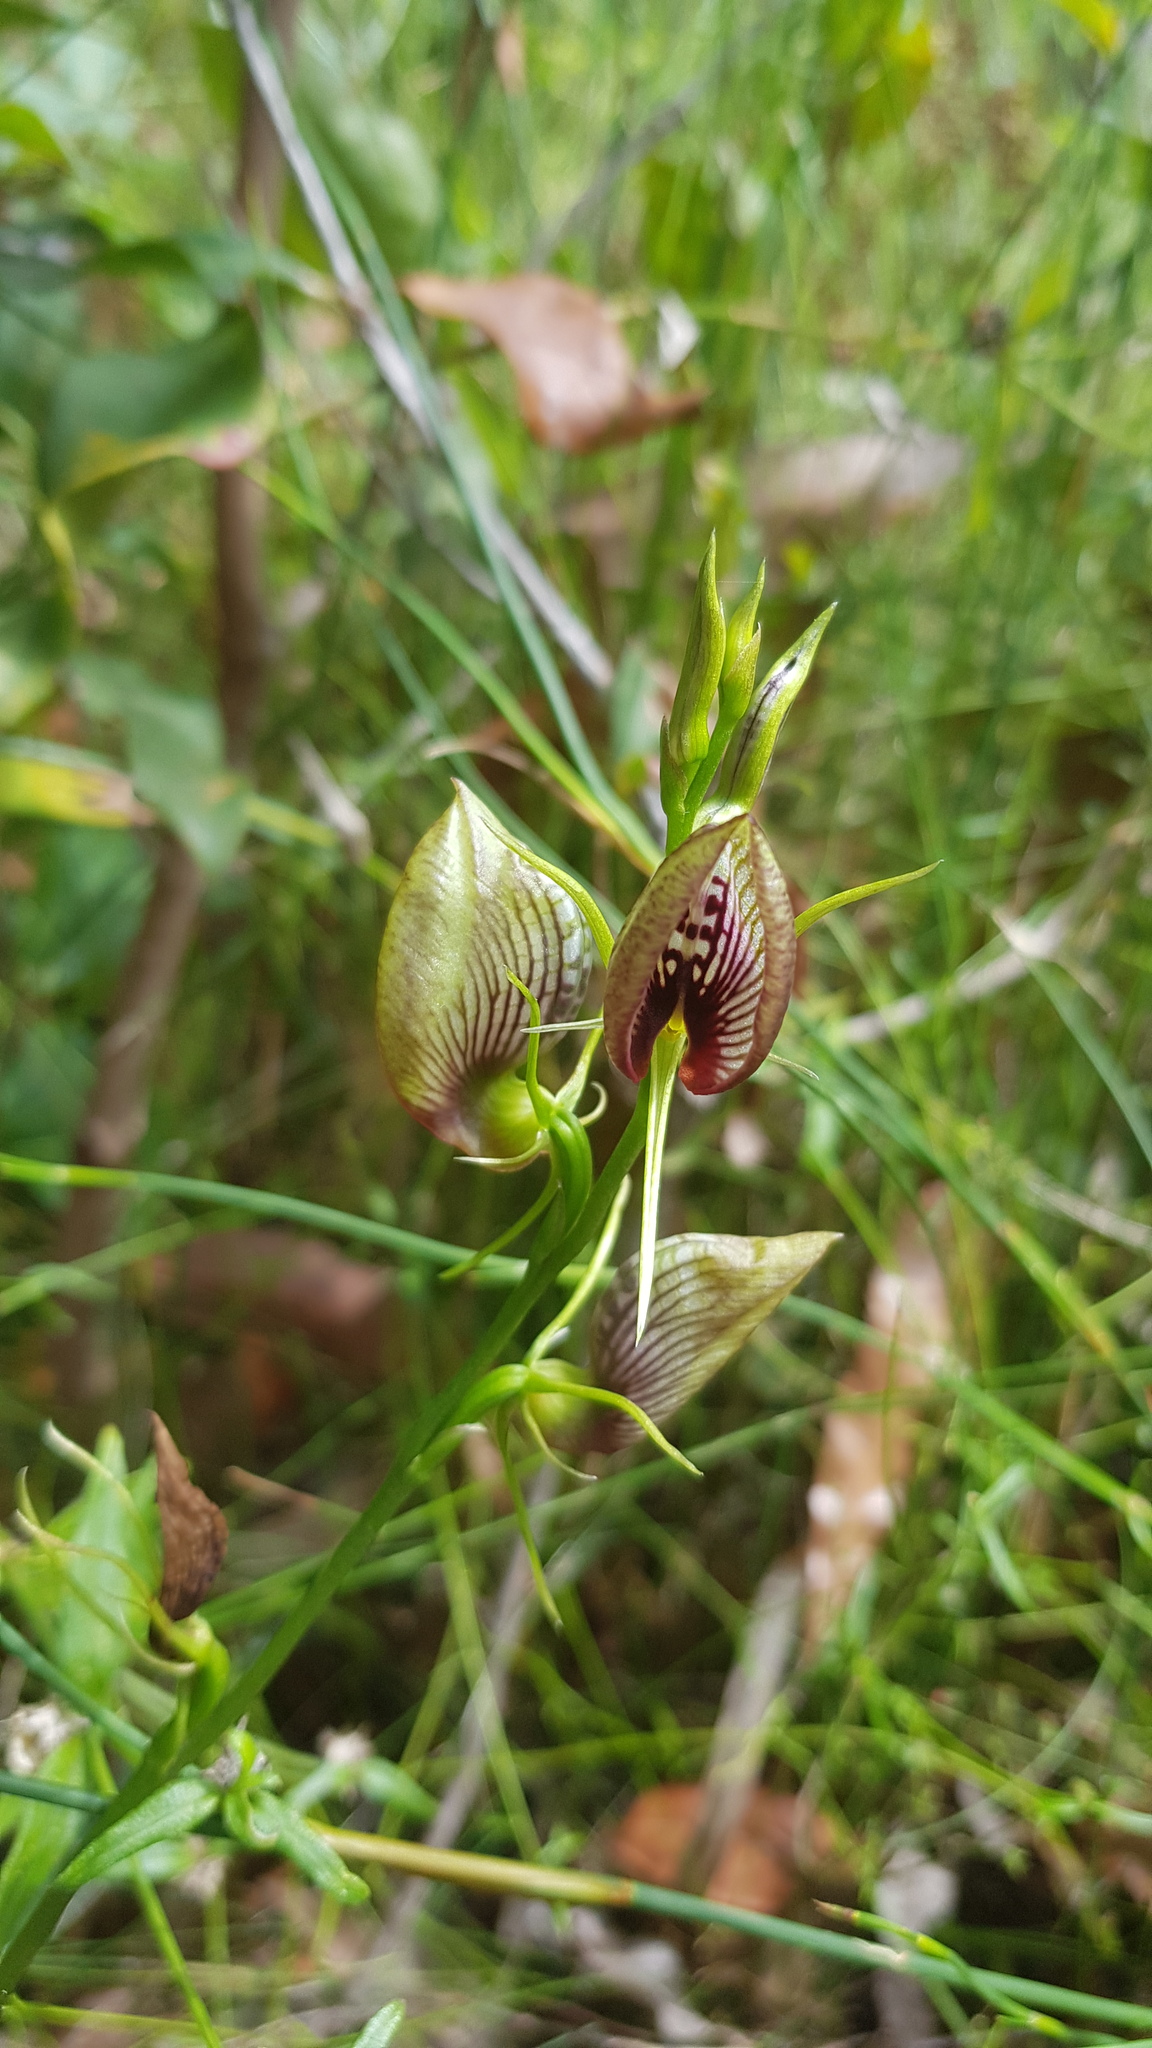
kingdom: Plantae
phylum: Tracheophyta
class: Liliopsida
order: Asparagales
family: Orchidaceae
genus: Cryptostylis
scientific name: Cryptostylis erecta
